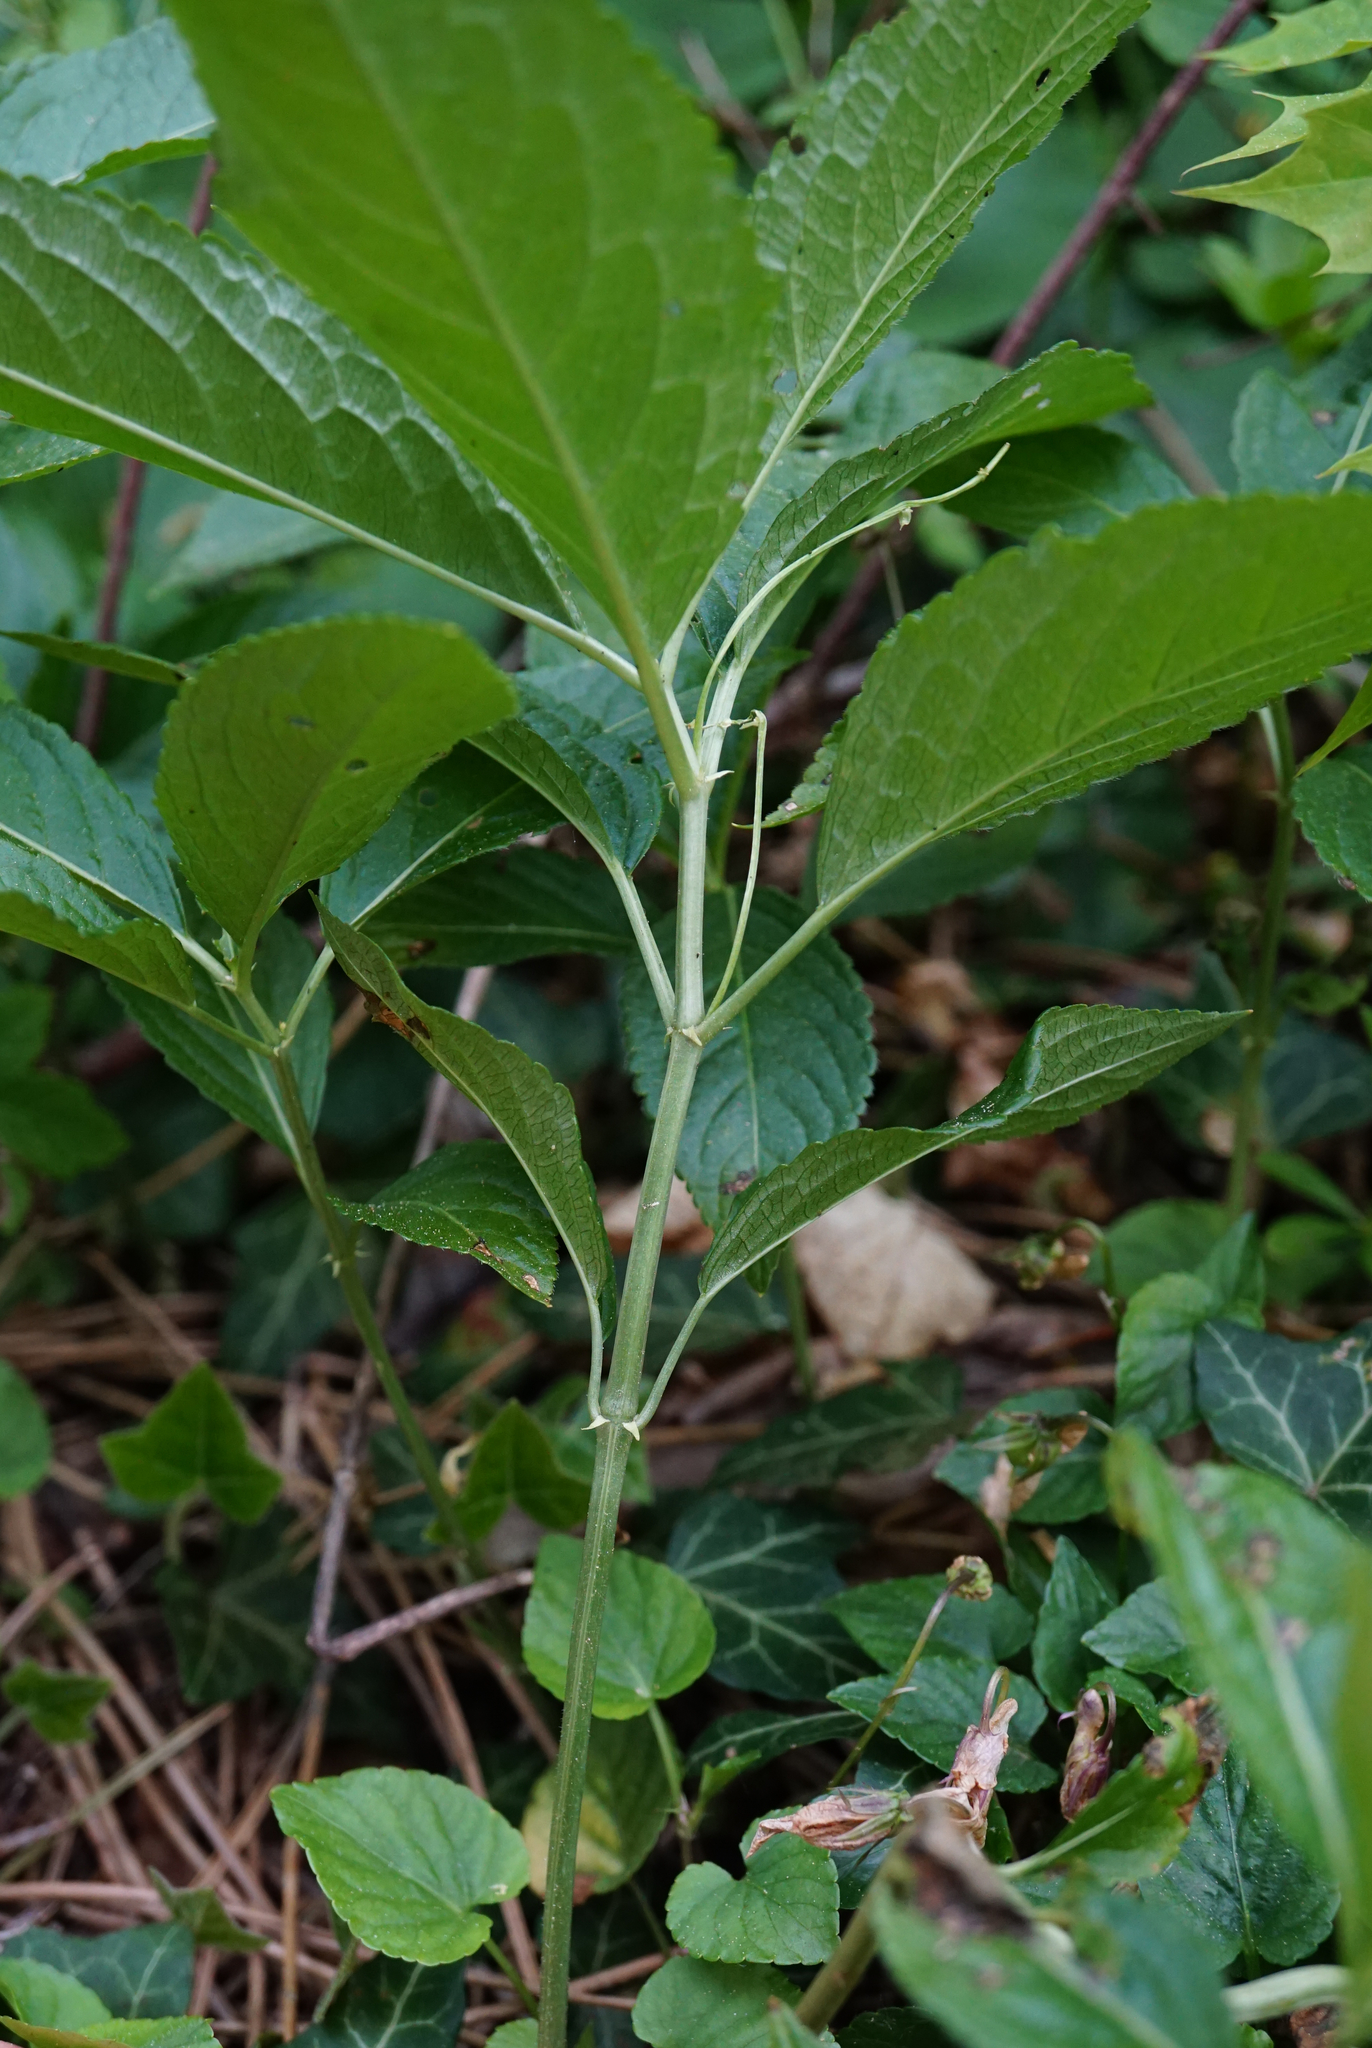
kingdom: Plantae
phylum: Tracheophyta
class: Magnoliopsida
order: Malpighiales
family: Euphorbiaceae
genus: Mercurialis
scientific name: Mercurialis perennis
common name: Dog mercury
